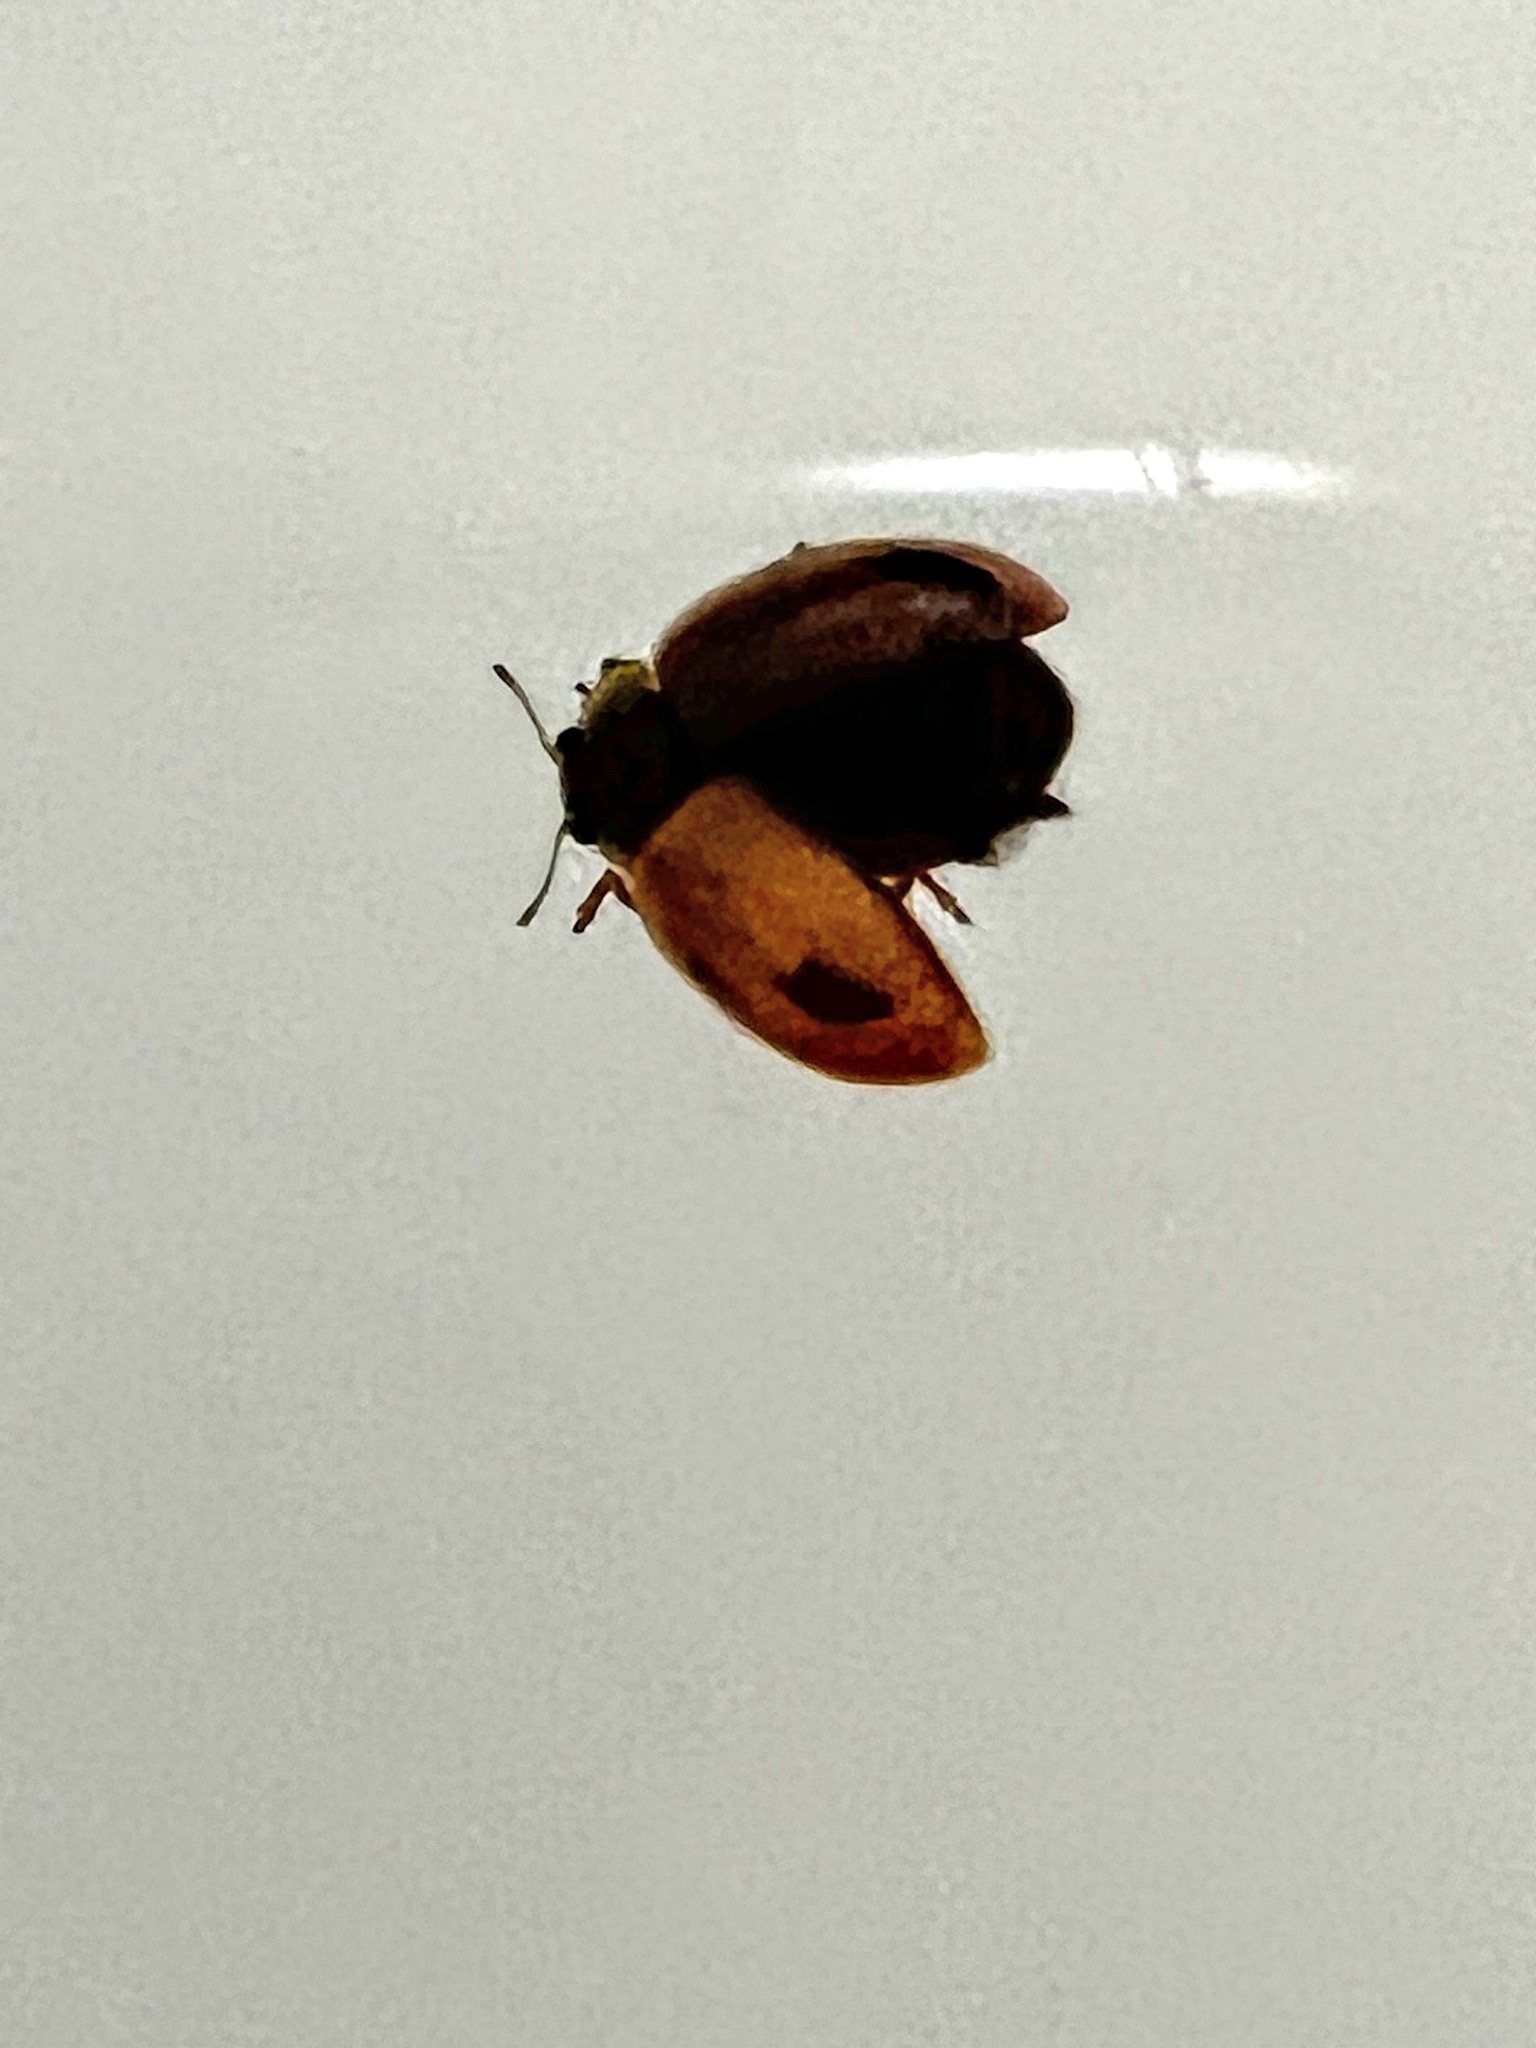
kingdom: Animalia
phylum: Arthropoda
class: Insecta
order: Coleoptera
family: Coccinellidae
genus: Aphidecta
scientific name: Aphidecta obliterata
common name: Larch ladybird
